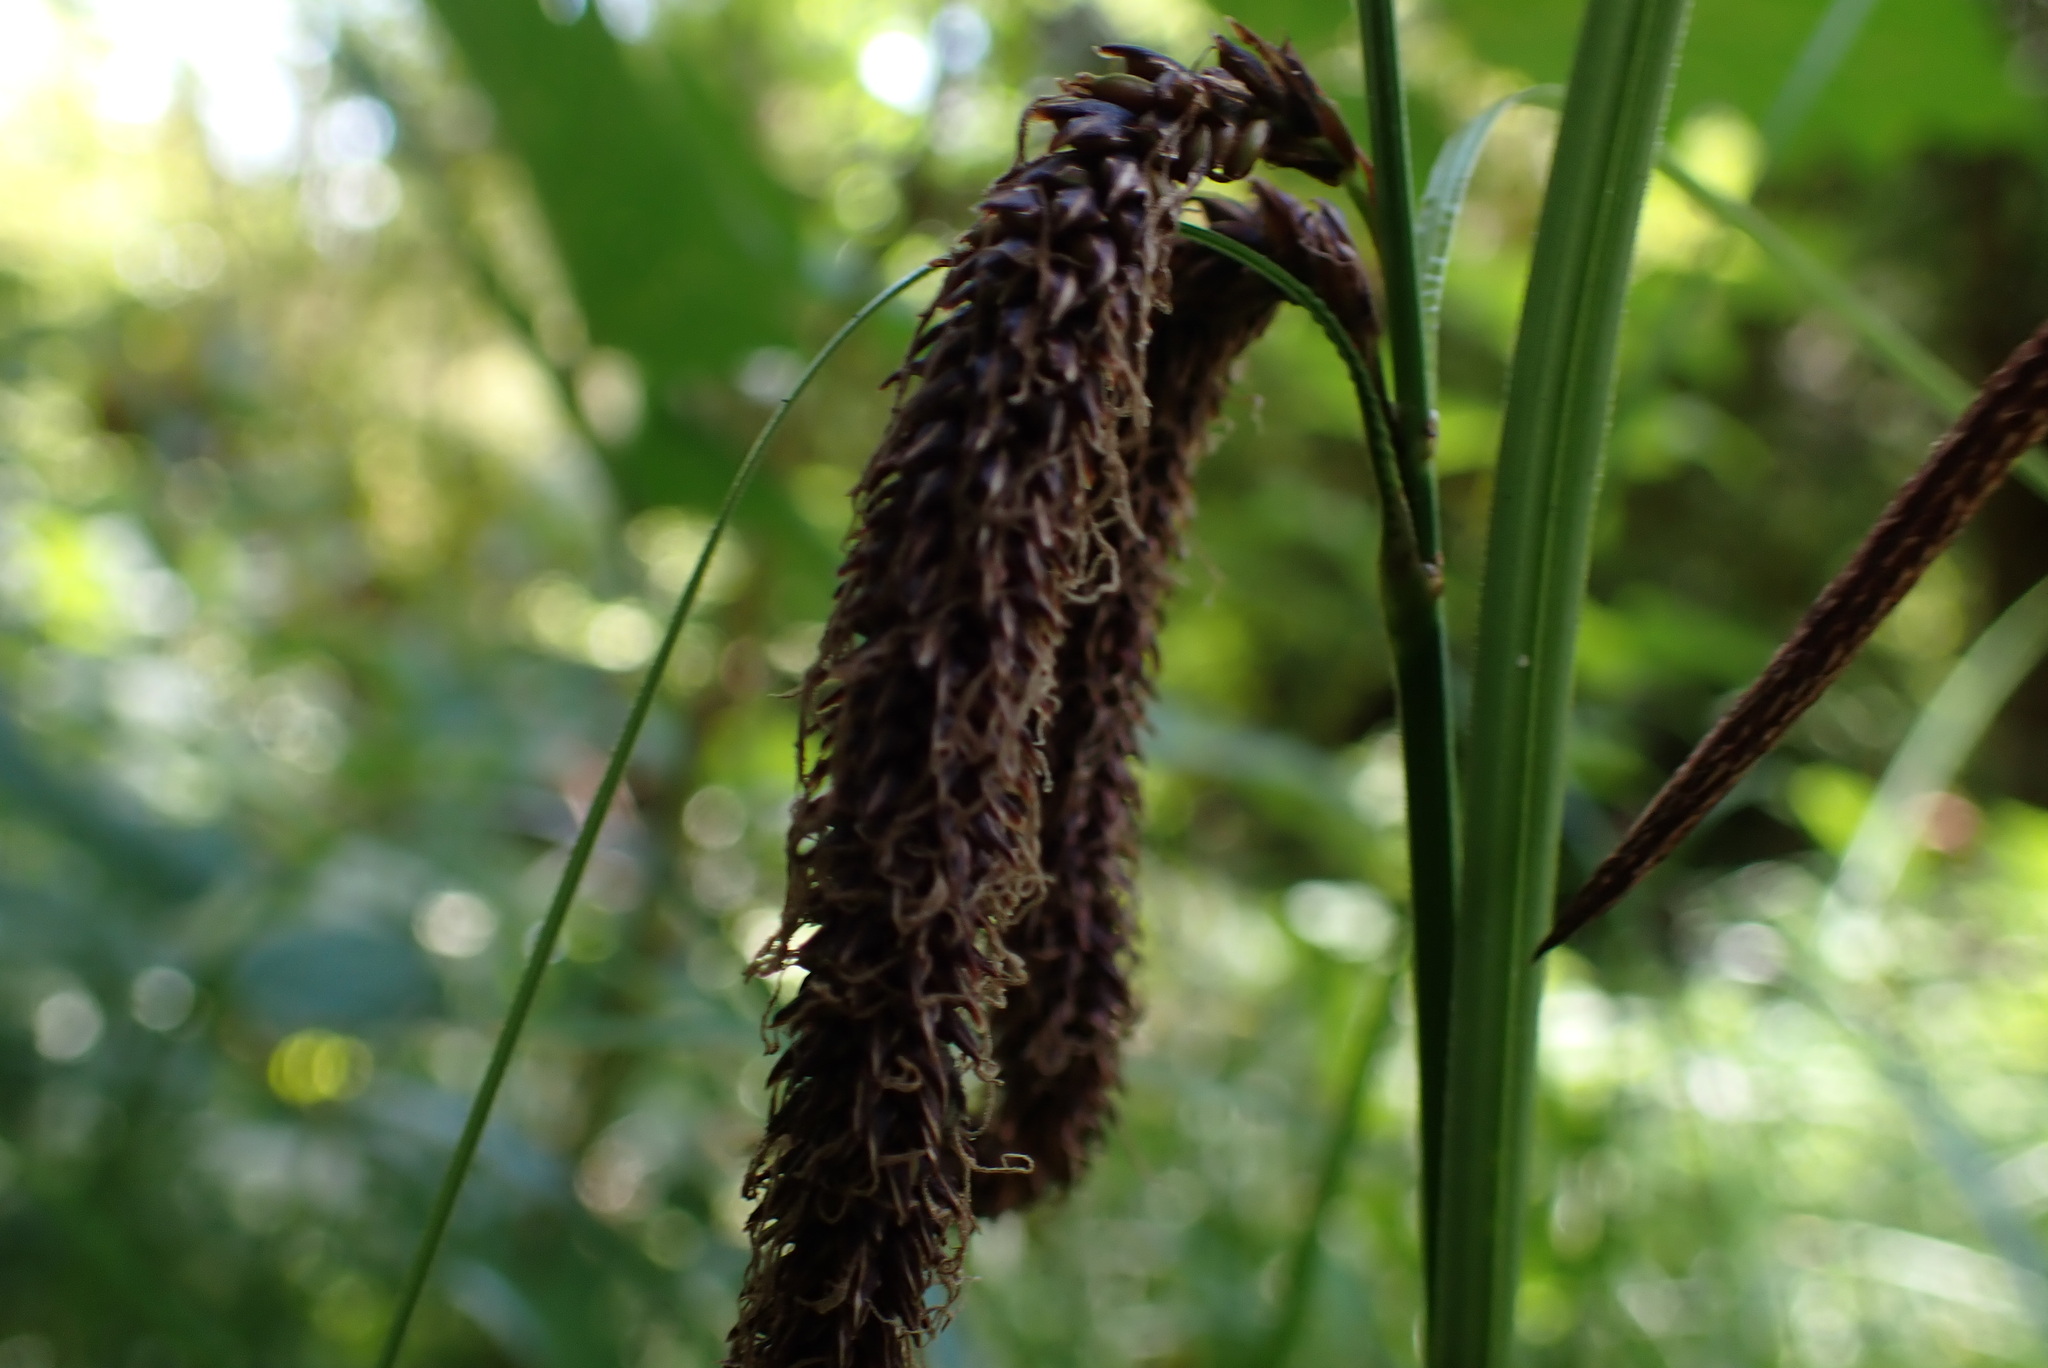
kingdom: Plantae
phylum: Tracheophyta
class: Liliopsida
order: Poales
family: Cyperaceae
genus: Carex
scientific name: Carex obnupta
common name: Slough sedge
